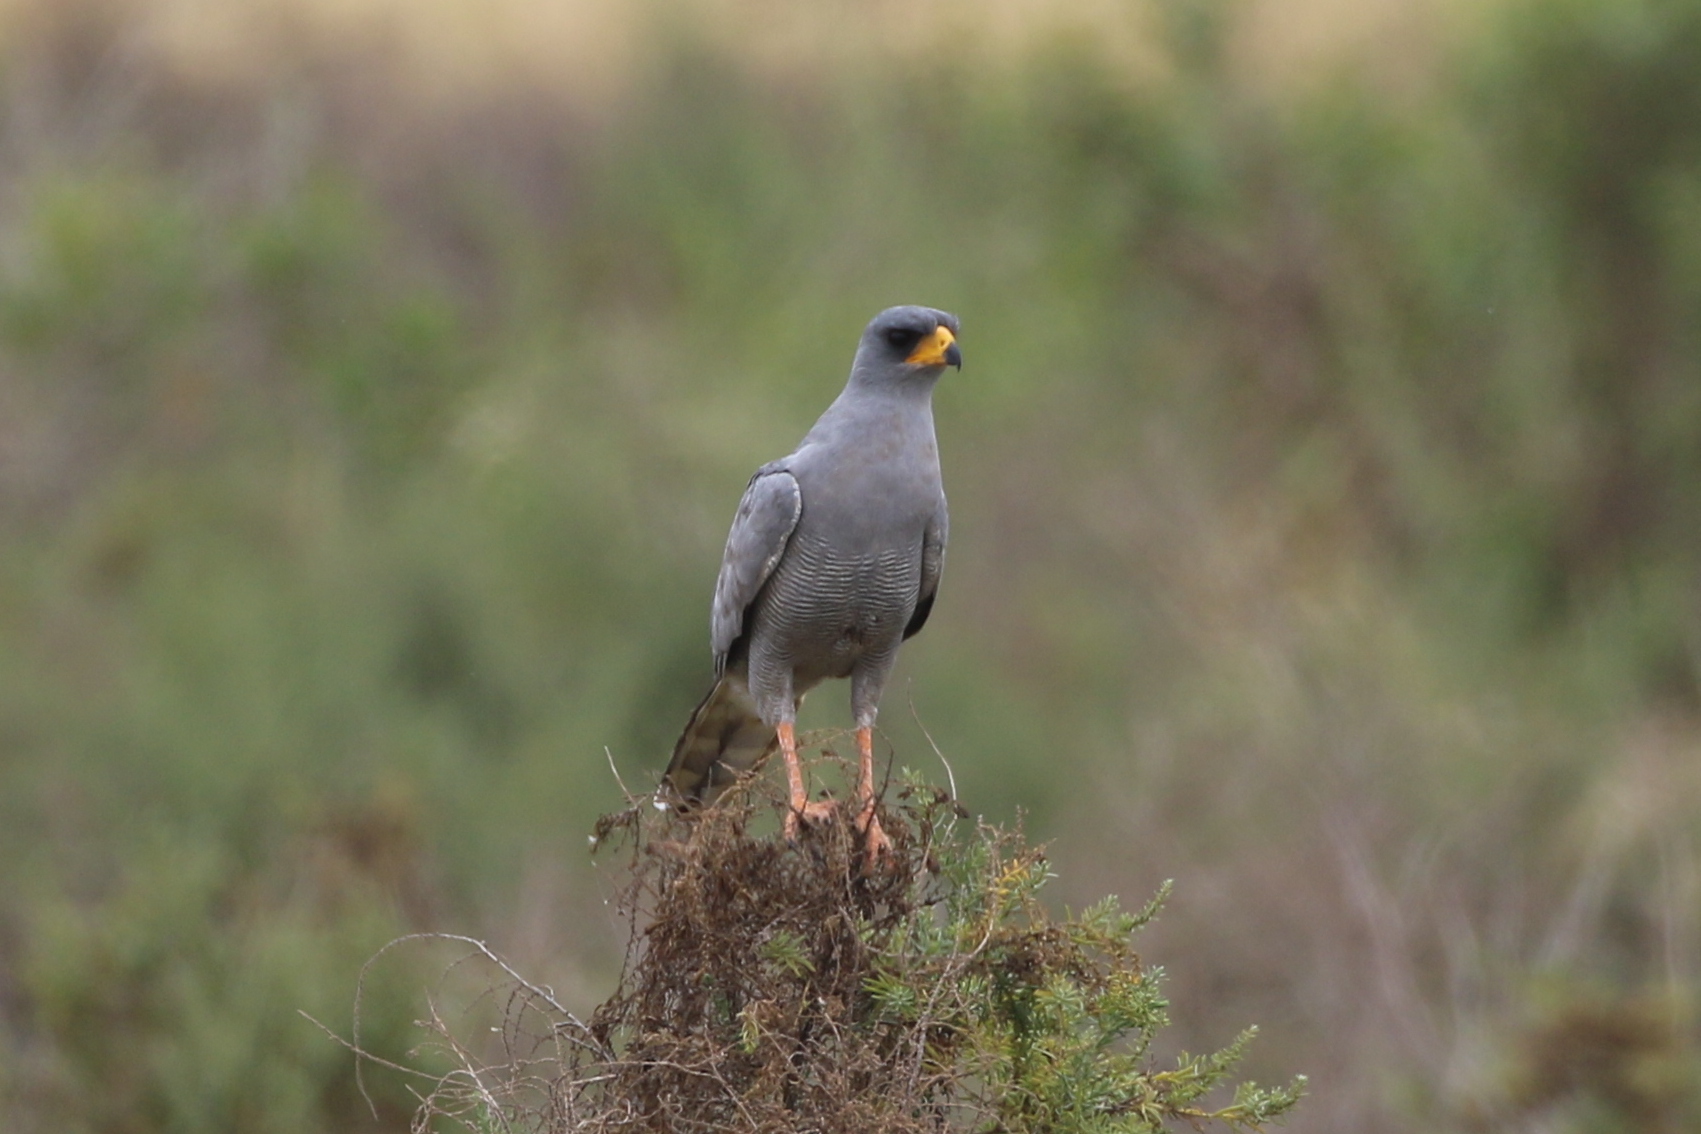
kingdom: Animalia
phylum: Chordata
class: Aves
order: Accipitriformes
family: Accipitridae
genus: Melierax
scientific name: Melierax poliopterus
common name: Eastern chanting goshawk
